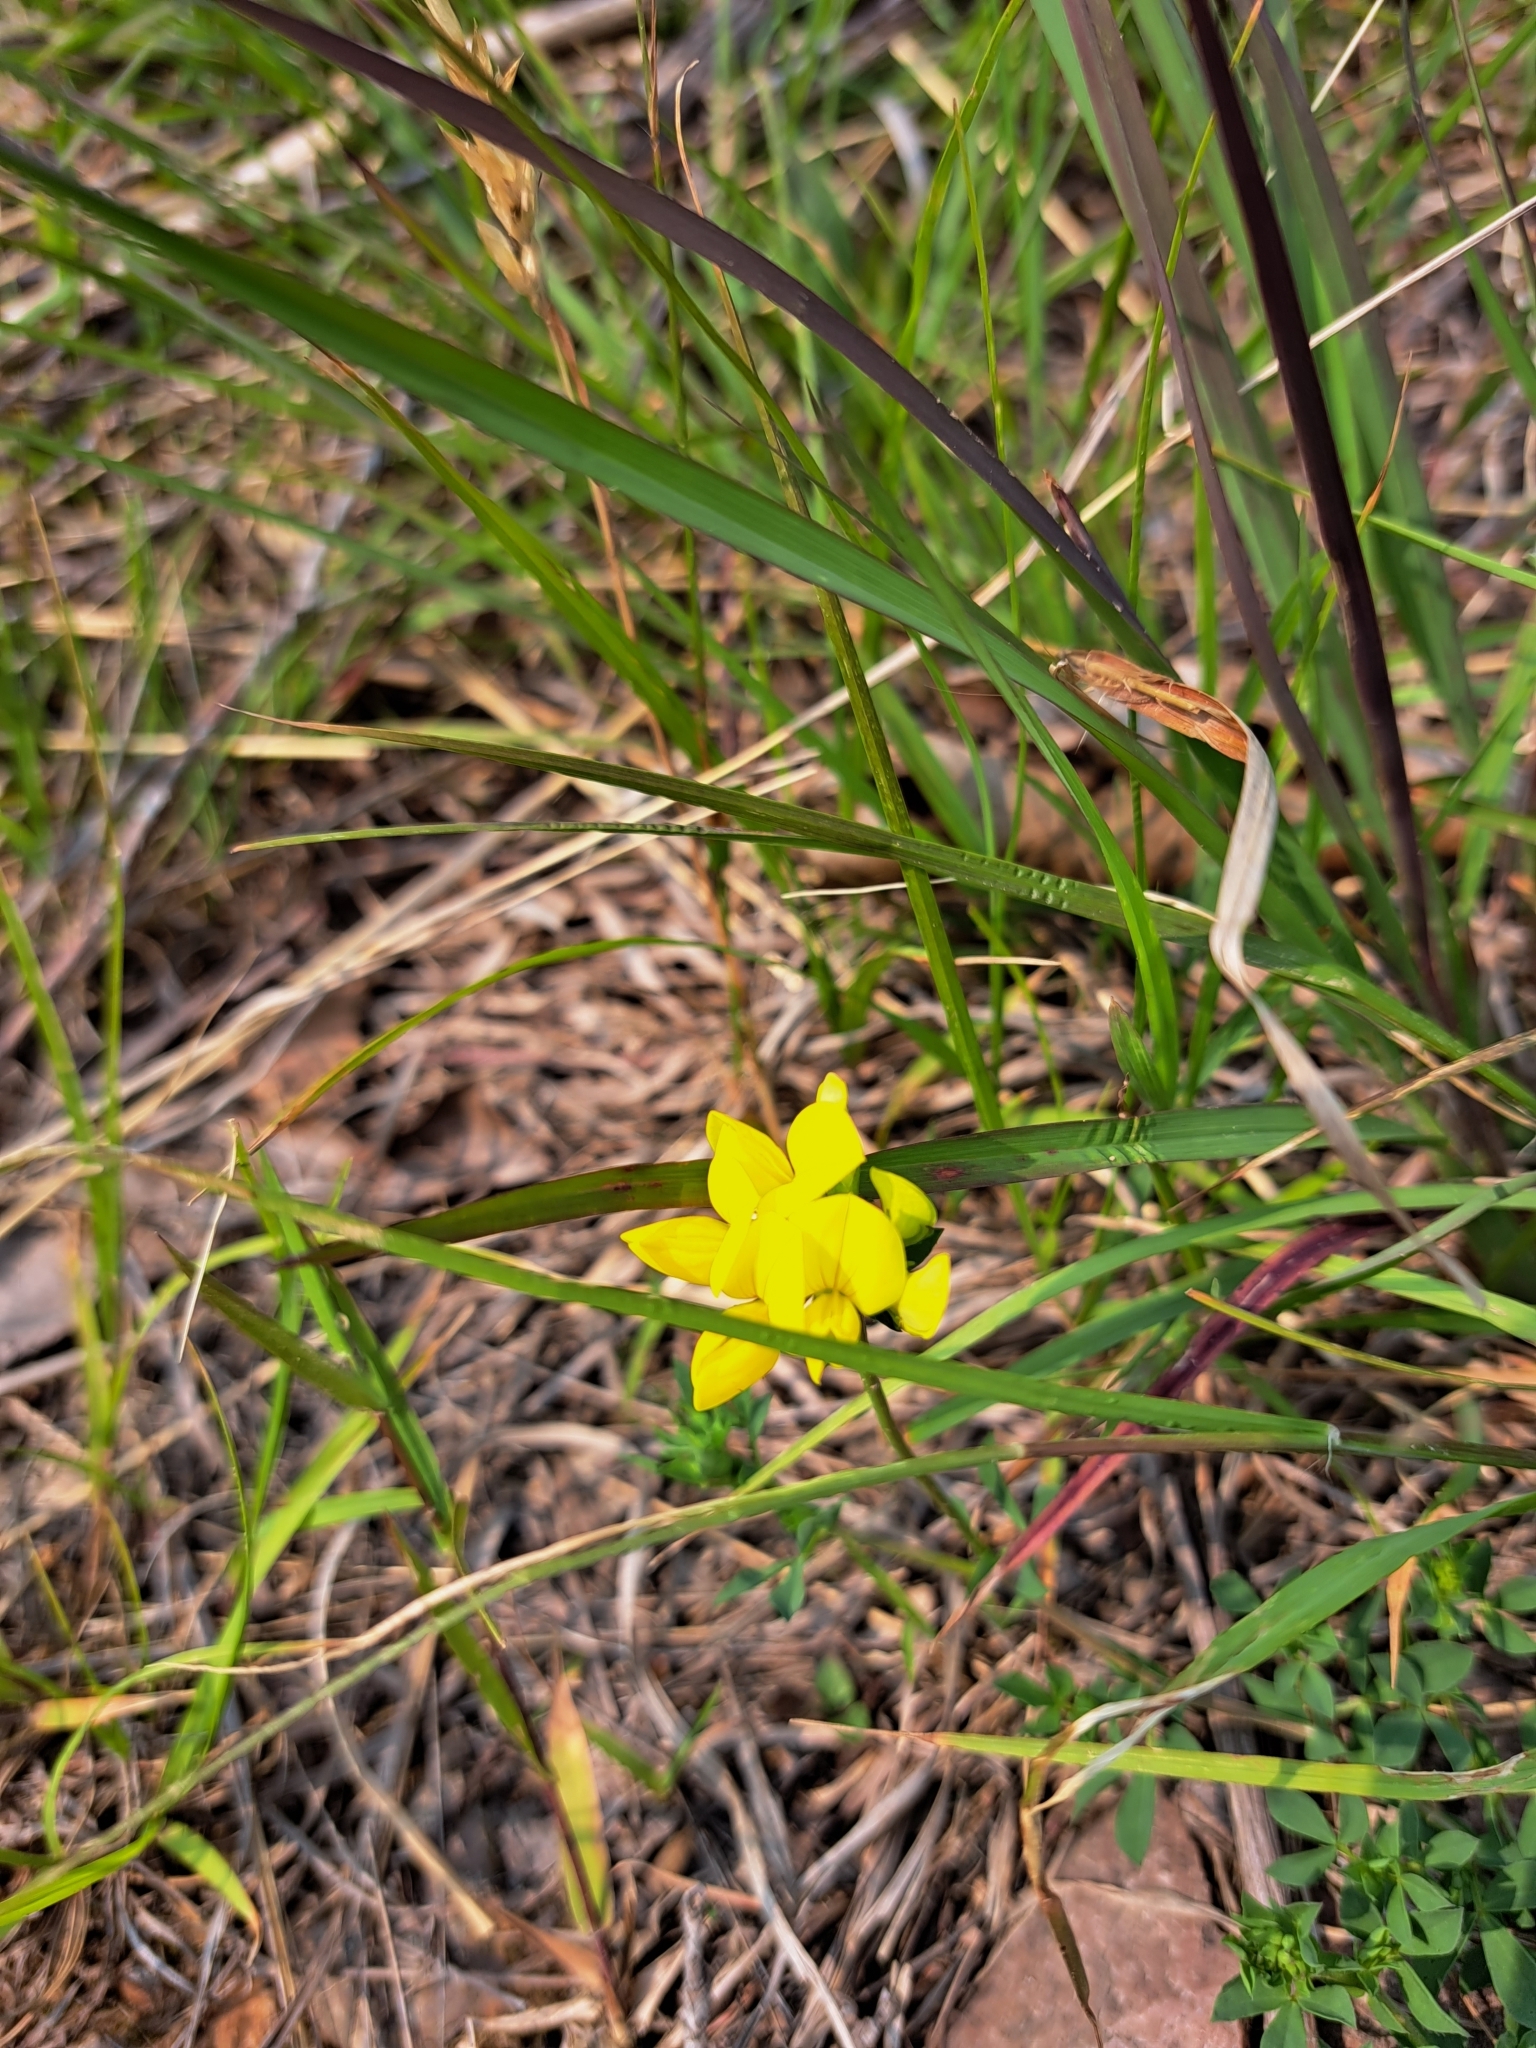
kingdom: Plantae
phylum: Tracheophyta
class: Magnoliopsida
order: Fabales
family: Fabaceae
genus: Lotus
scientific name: Lotus corniculatus
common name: Common bird's-foot-trefoil
